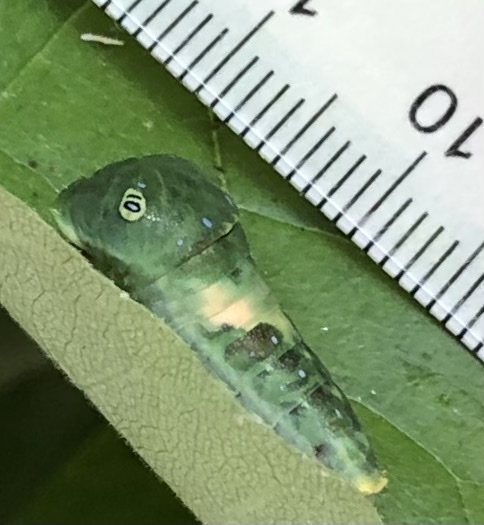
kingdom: Animalia
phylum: Arthropoda
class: Insecta
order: Lepidoptera
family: Papilionidae
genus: Papilio
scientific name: Papilio glaucus
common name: Tiger swallowtail
